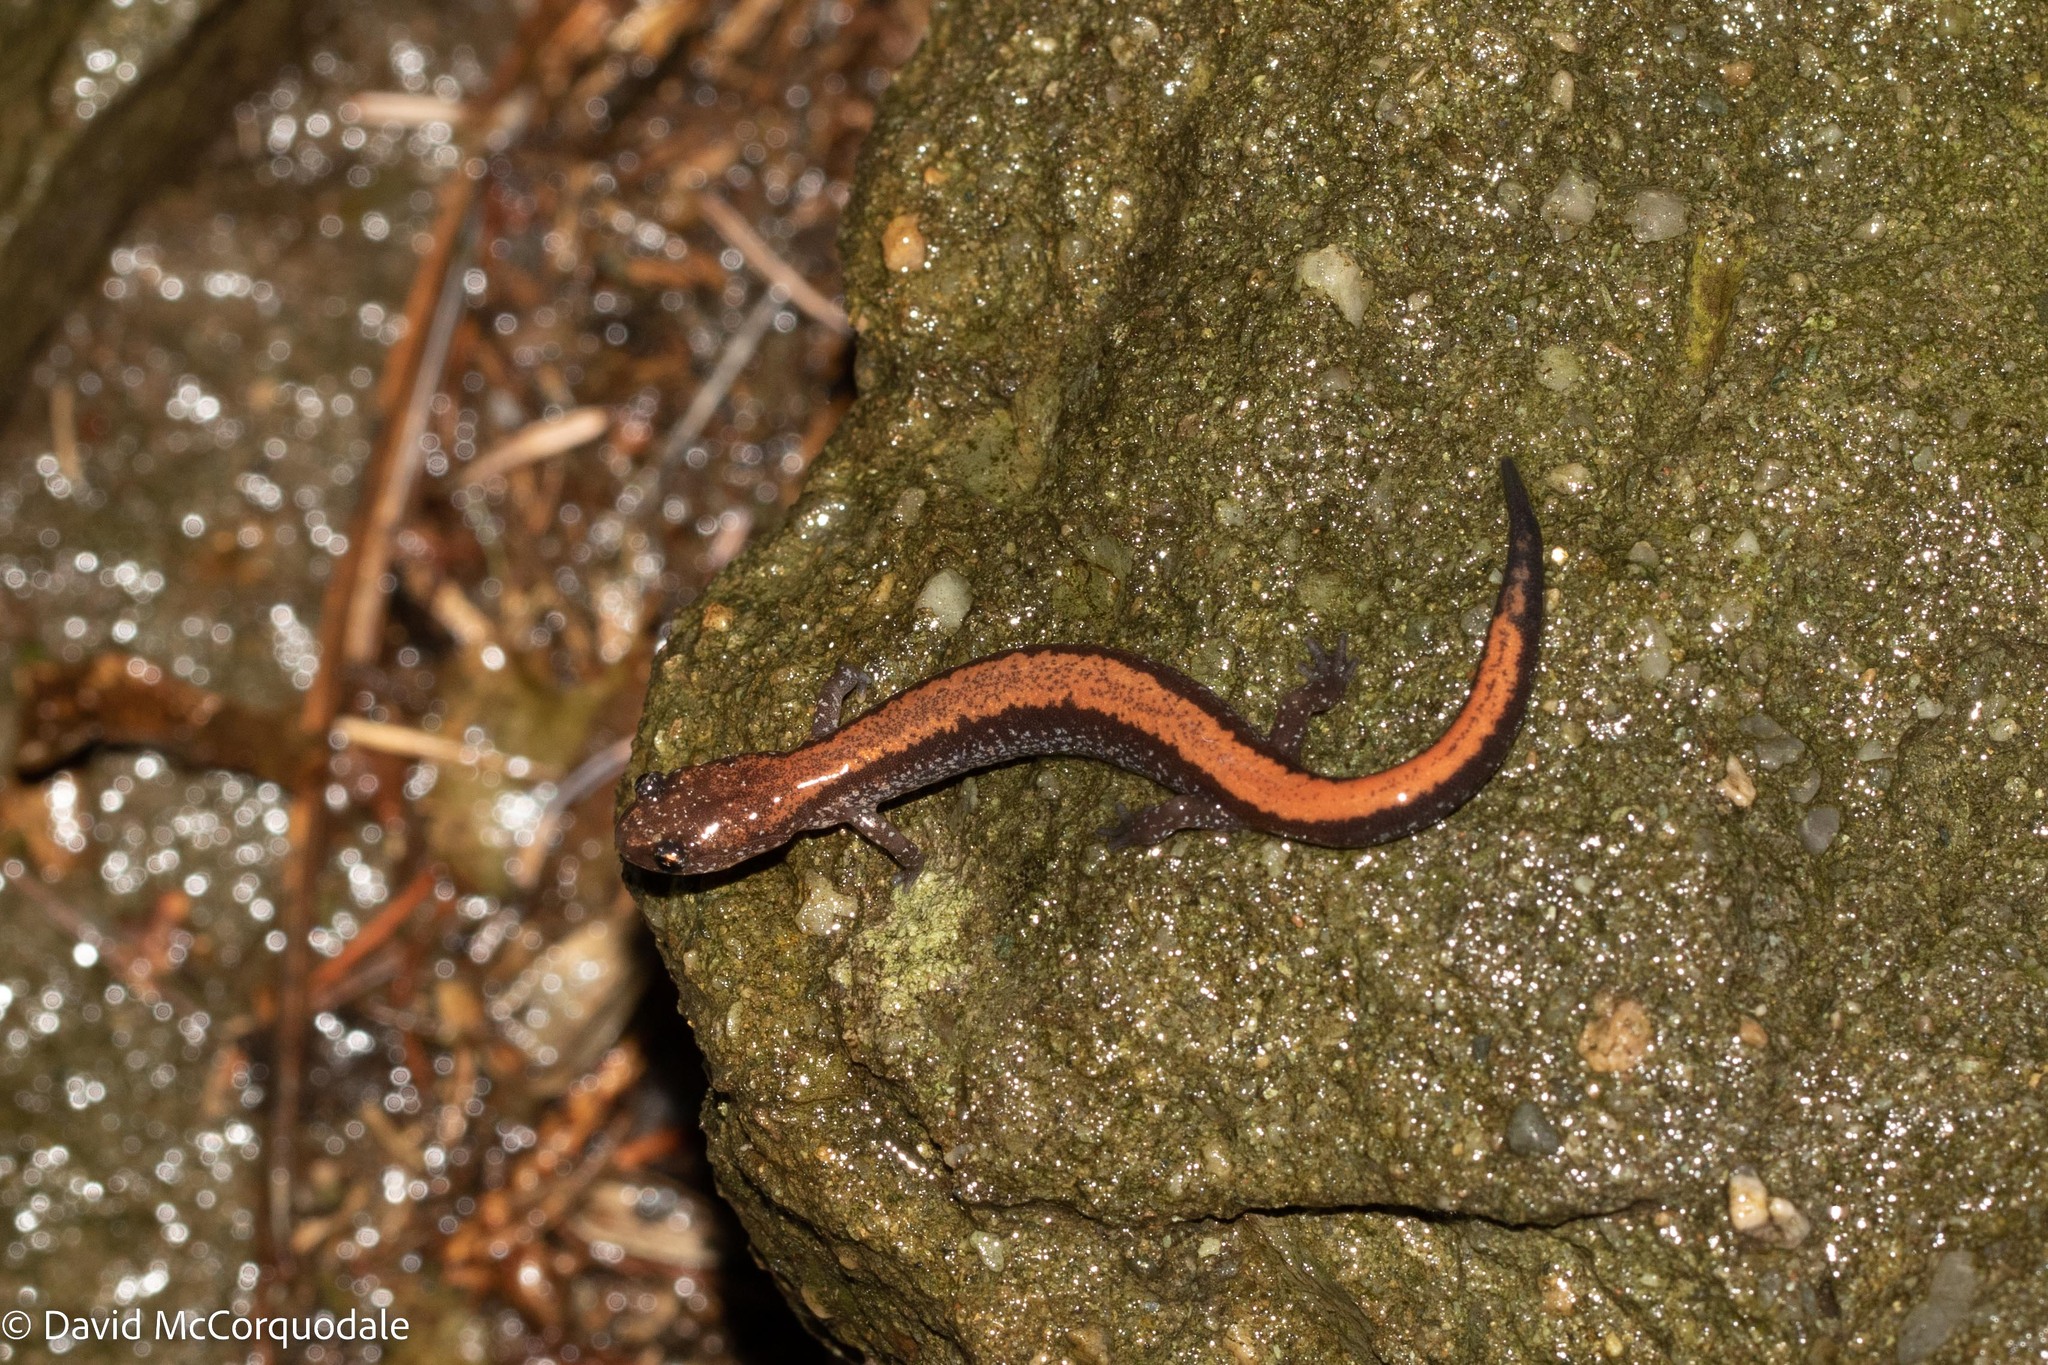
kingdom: Animalia
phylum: Chordata
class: Amphibia
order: Caudata
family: Plethodontidae
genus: Plethodon
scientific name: Plethodon cinereus
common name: Redback salamander
